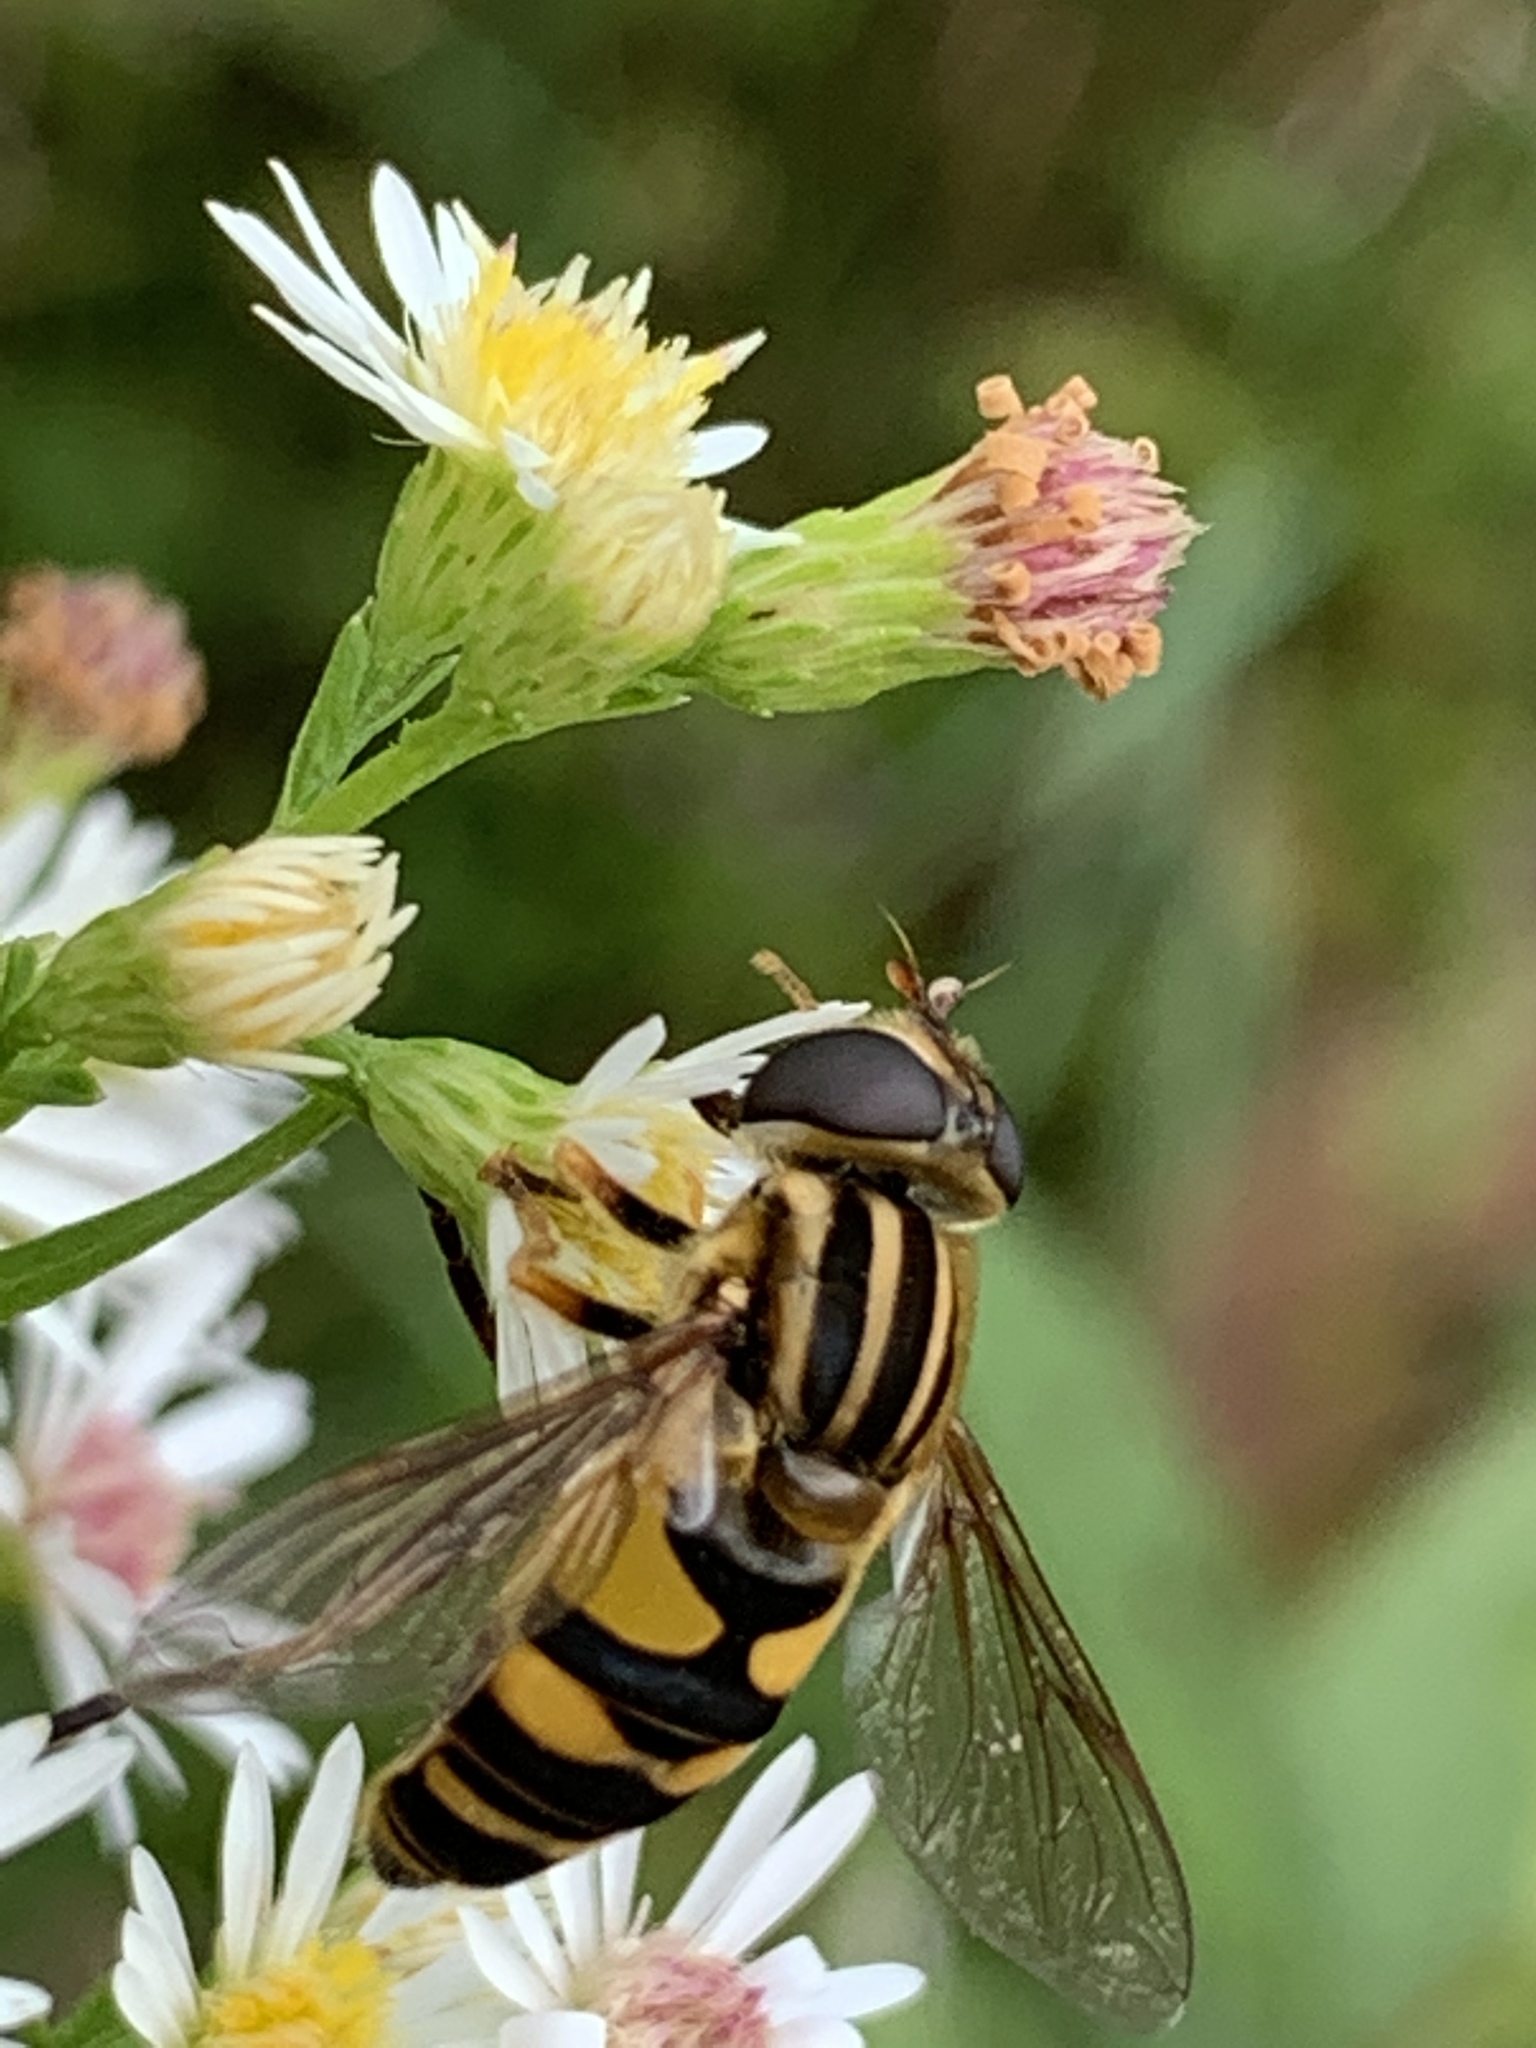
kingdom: Animalia
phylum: Arthropoda
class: Insecta
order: Diptera
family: Syrphidae
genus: Helophilus
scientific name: Helophilus fasciatus
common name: Narrow-headed marsh fly
